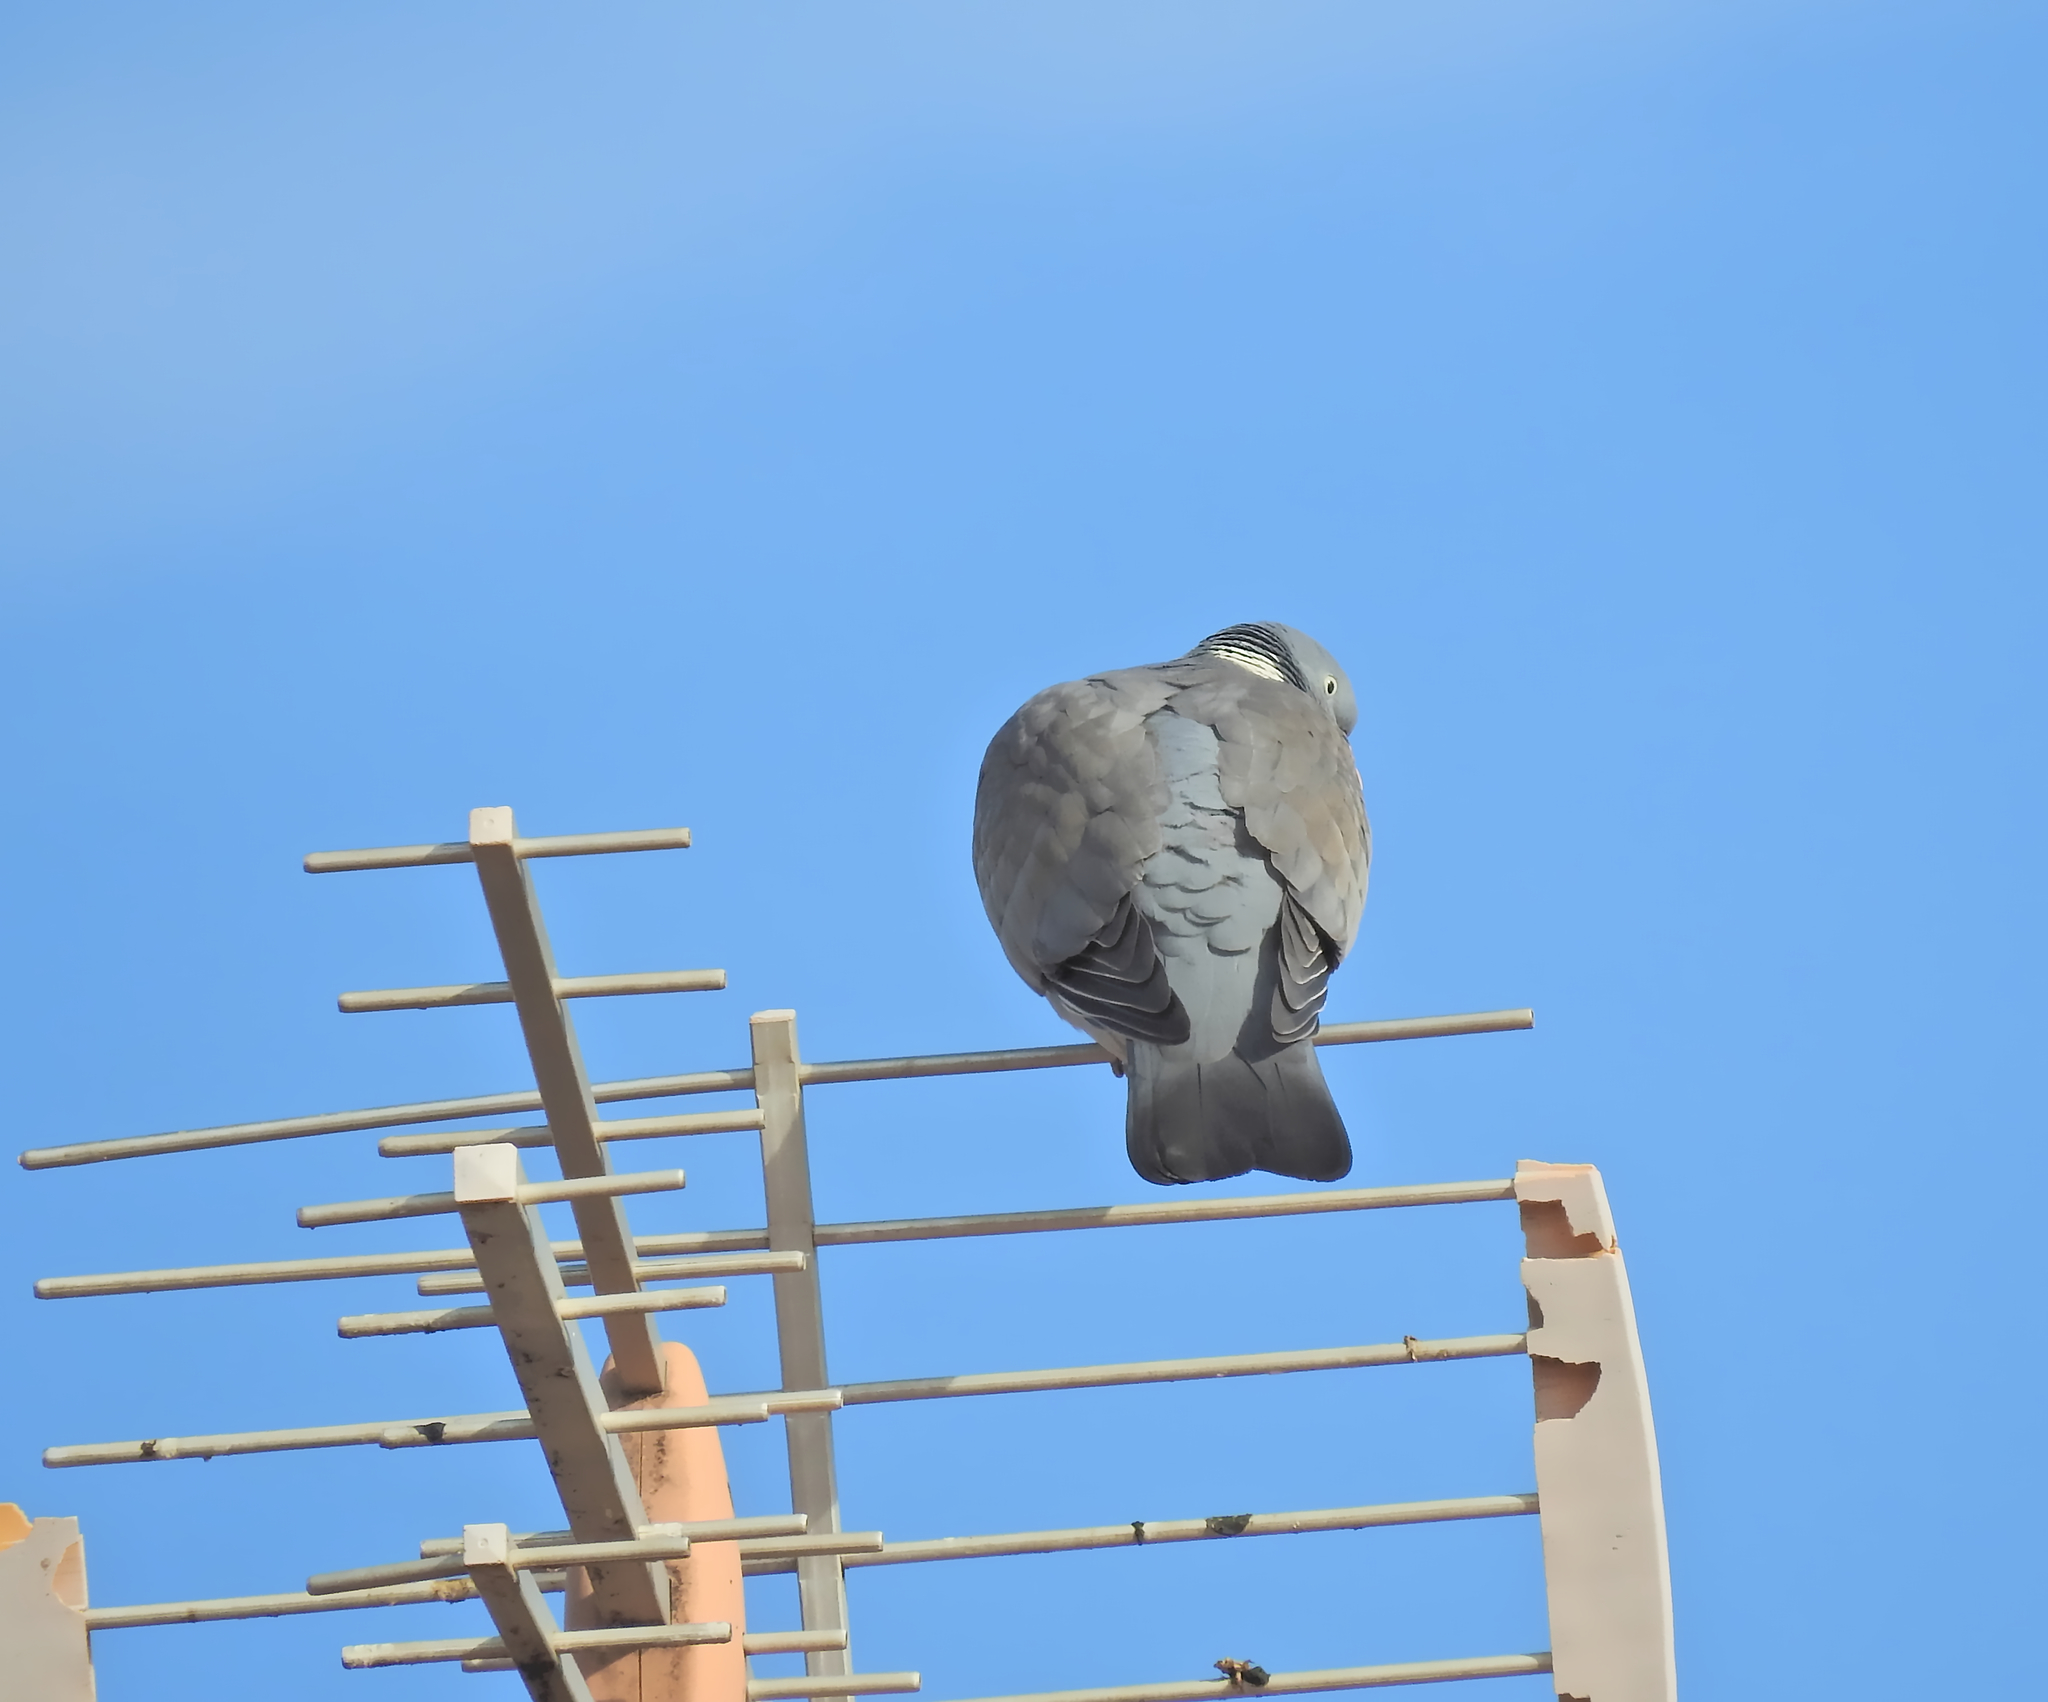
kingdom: Animalia
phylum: Chordata
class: Aves
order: Columbiformes
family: Columbidae
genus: Columba
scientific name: Columba palumbus
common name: Common wood pigeon
